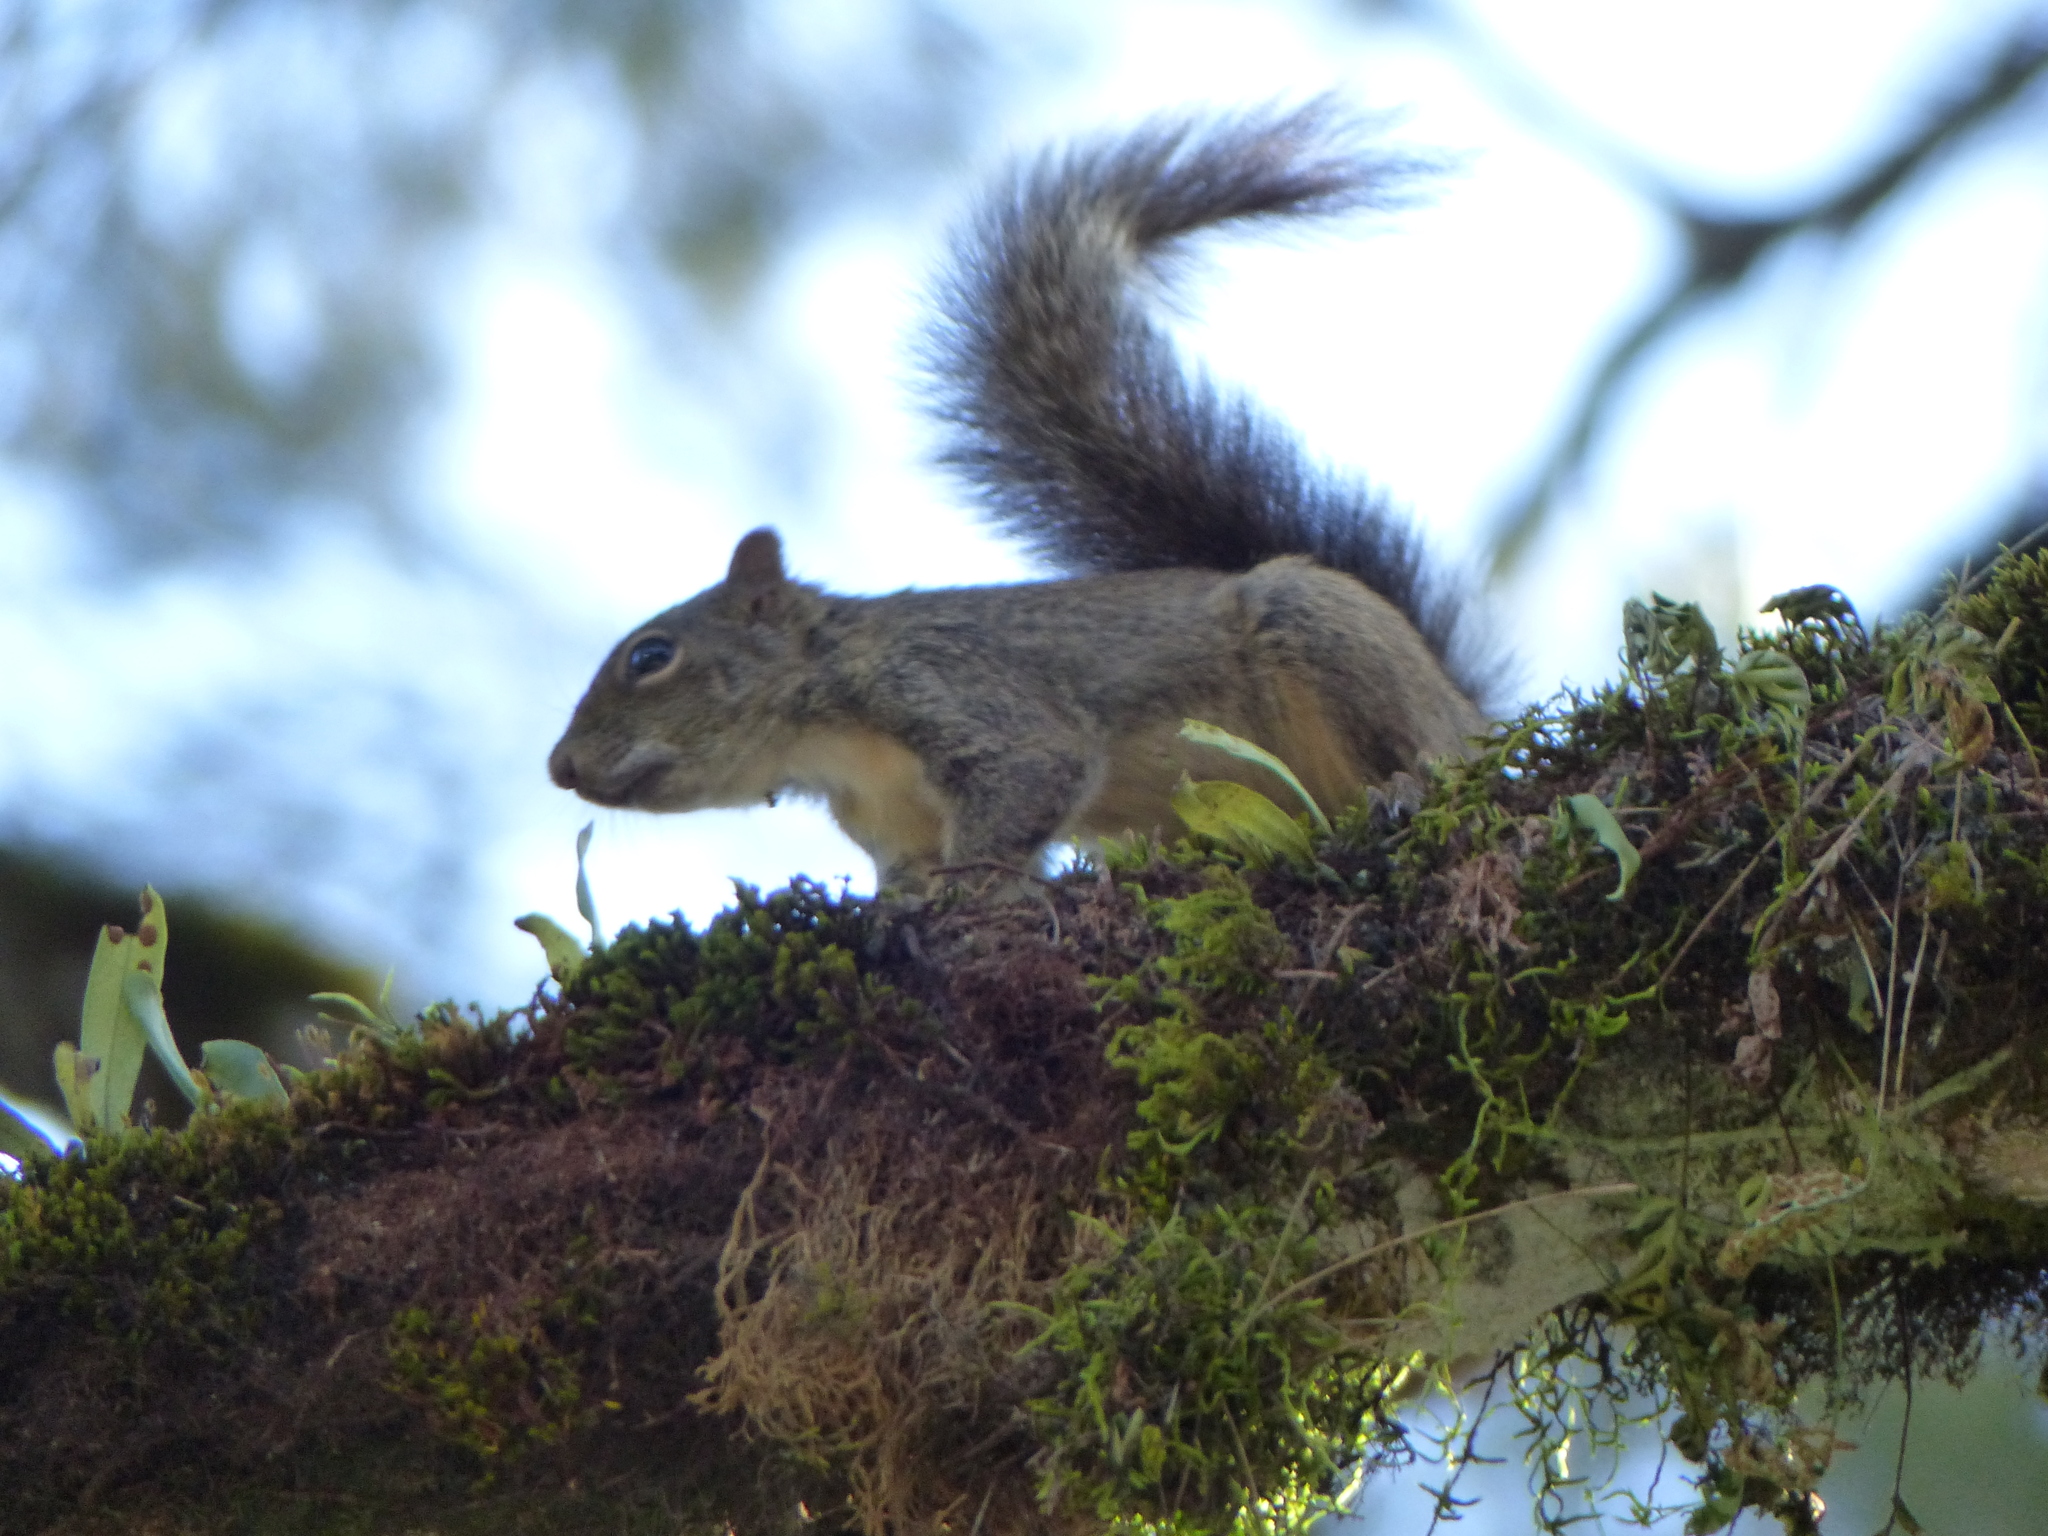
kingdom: Animalia
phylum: Chordata
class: Mammalia
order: Rodentia
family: Sciuridae
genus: Sciurus
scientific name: Sciurus aestuans
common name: Guianan squirrel
